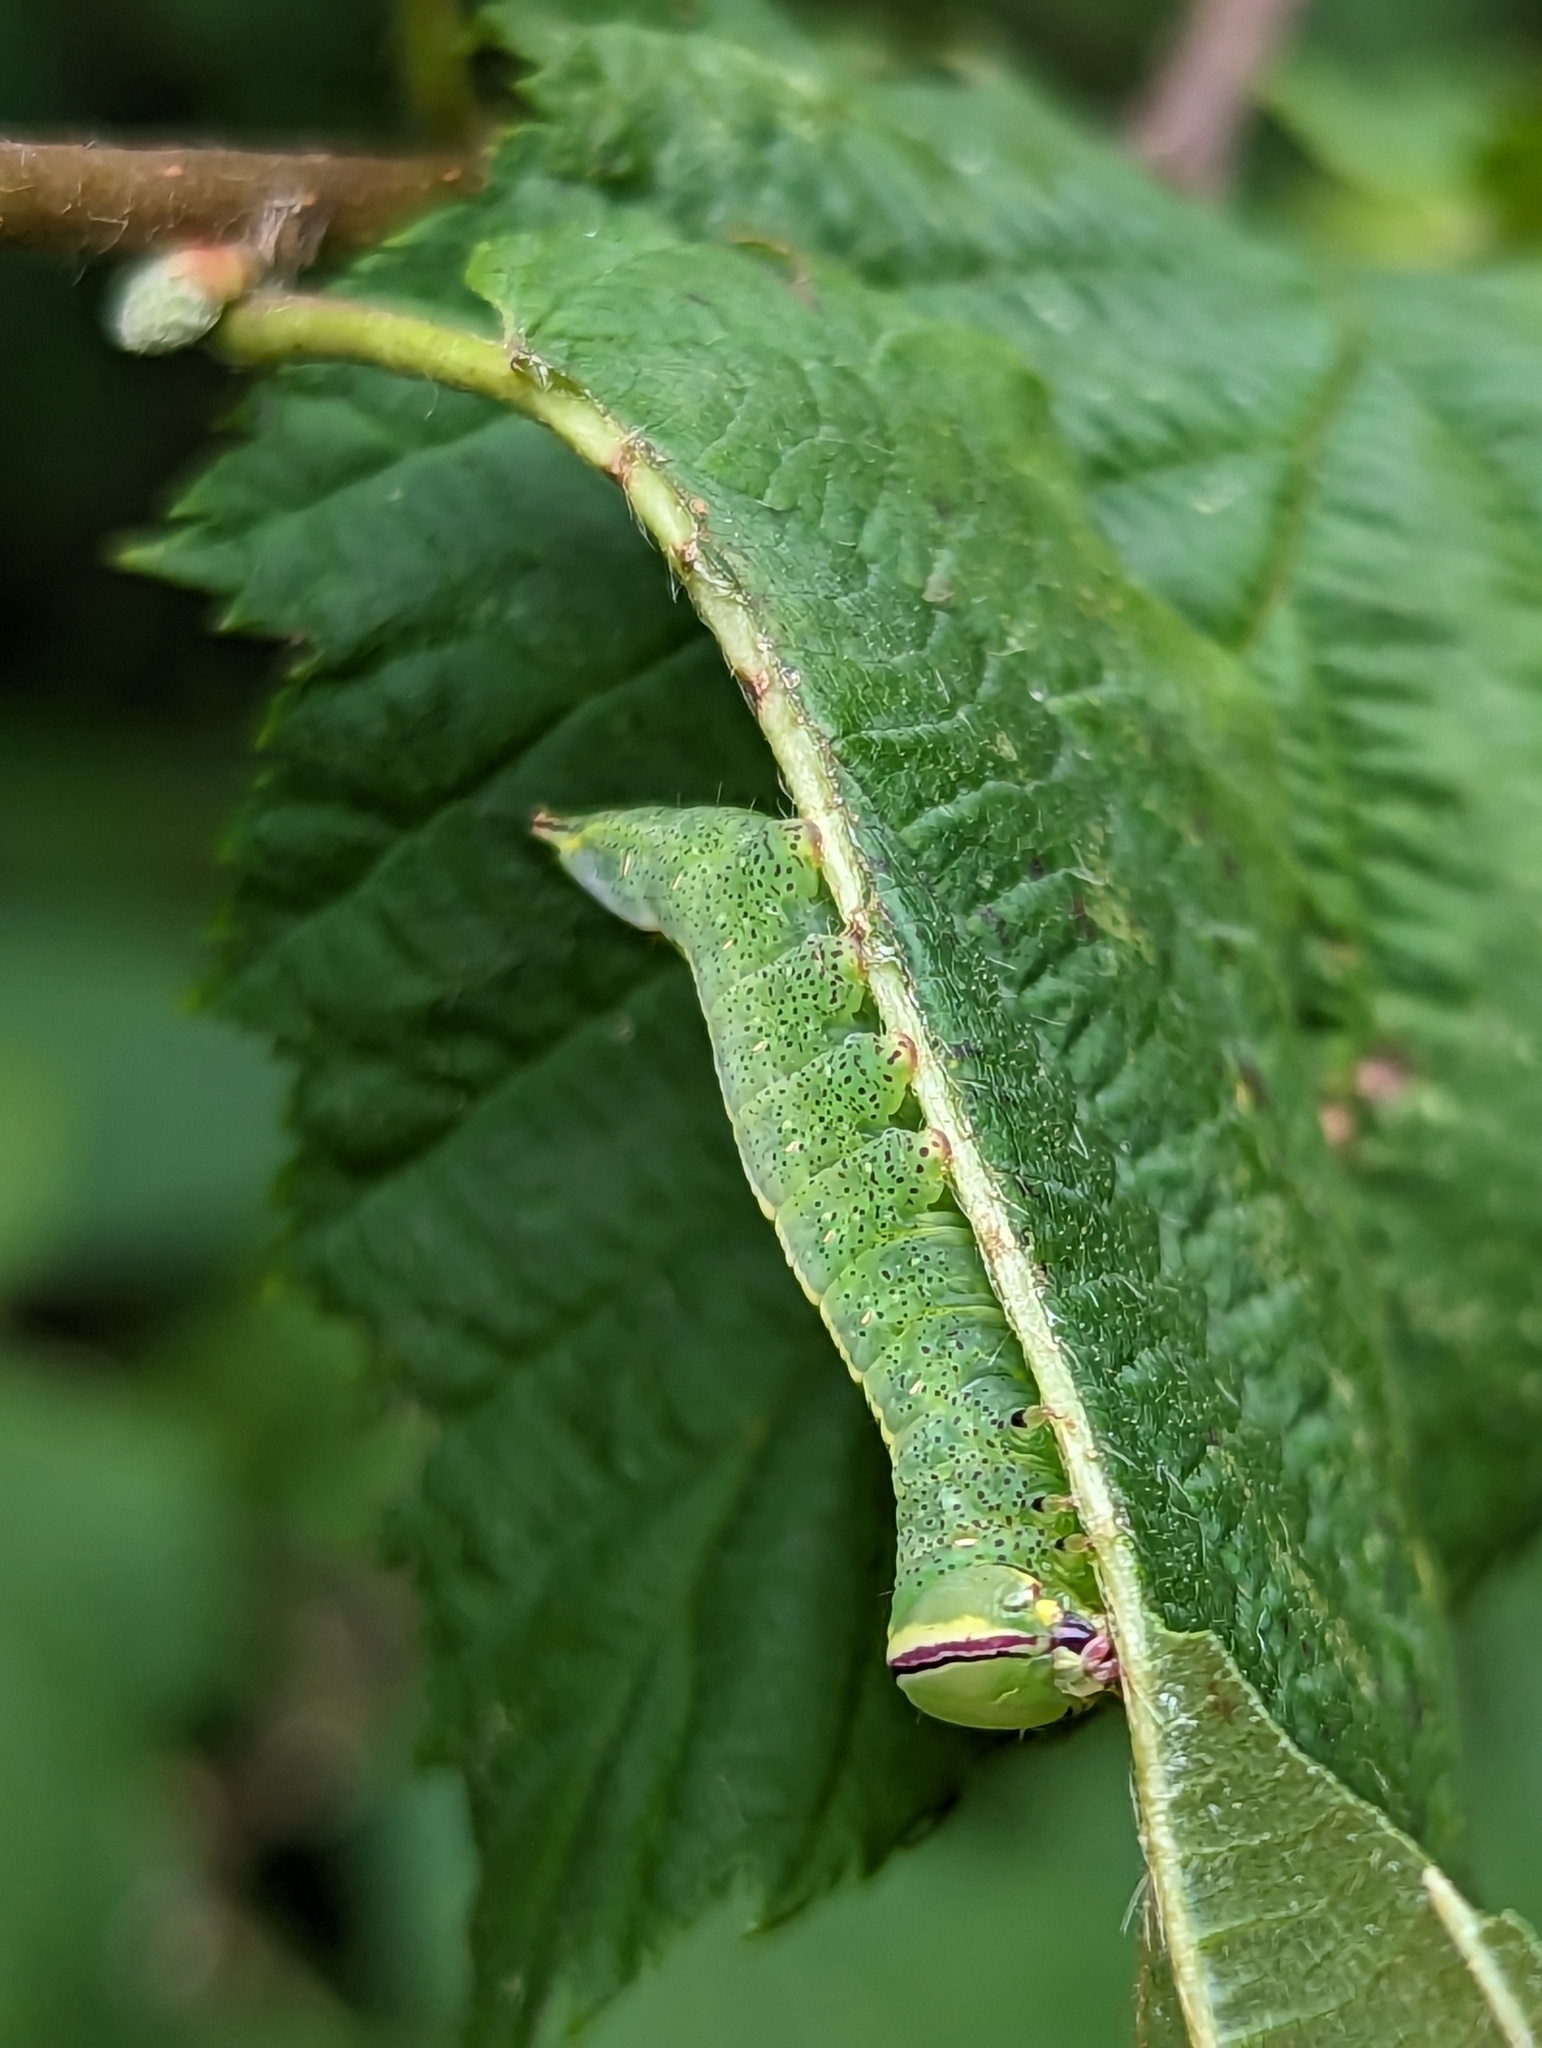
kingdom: Animalia
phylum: Arthropoda
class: Insecta
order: Lepidoptera
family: Notodontidae
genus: Disphragis
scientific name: Disphragis Cecrita guttivitta
